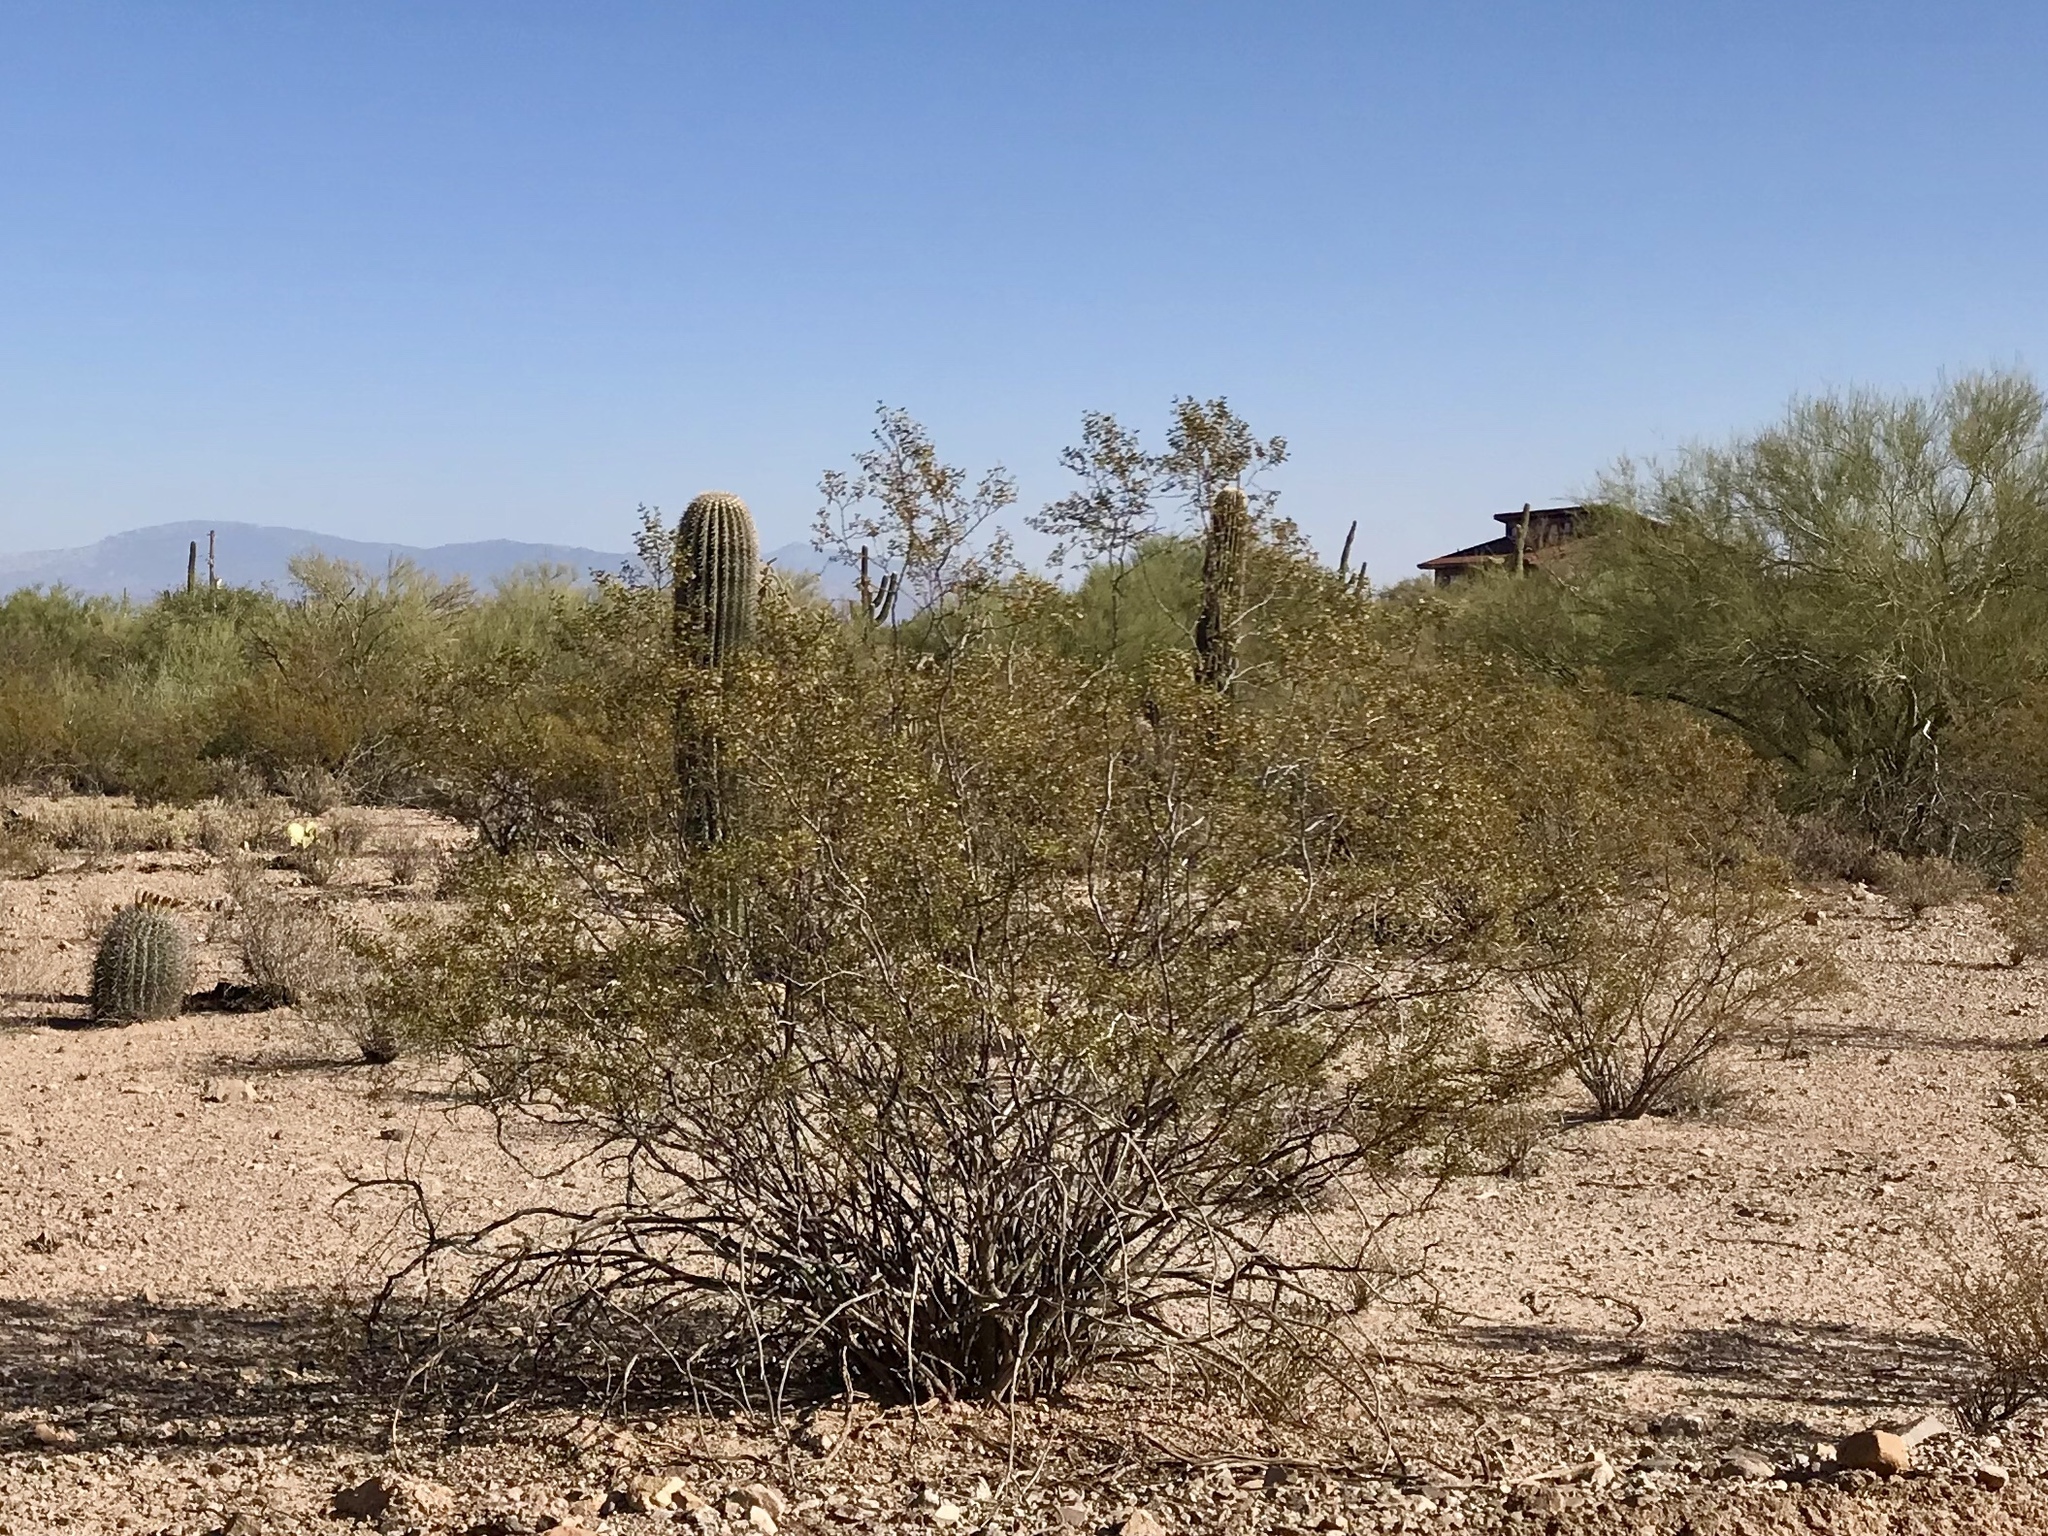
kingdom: Plantae
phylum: Tracheophyta
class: Magnoliopsida
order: Zygophyllales
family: Zygophyllaceae
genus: Larrea
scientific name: Larrea tridentata
